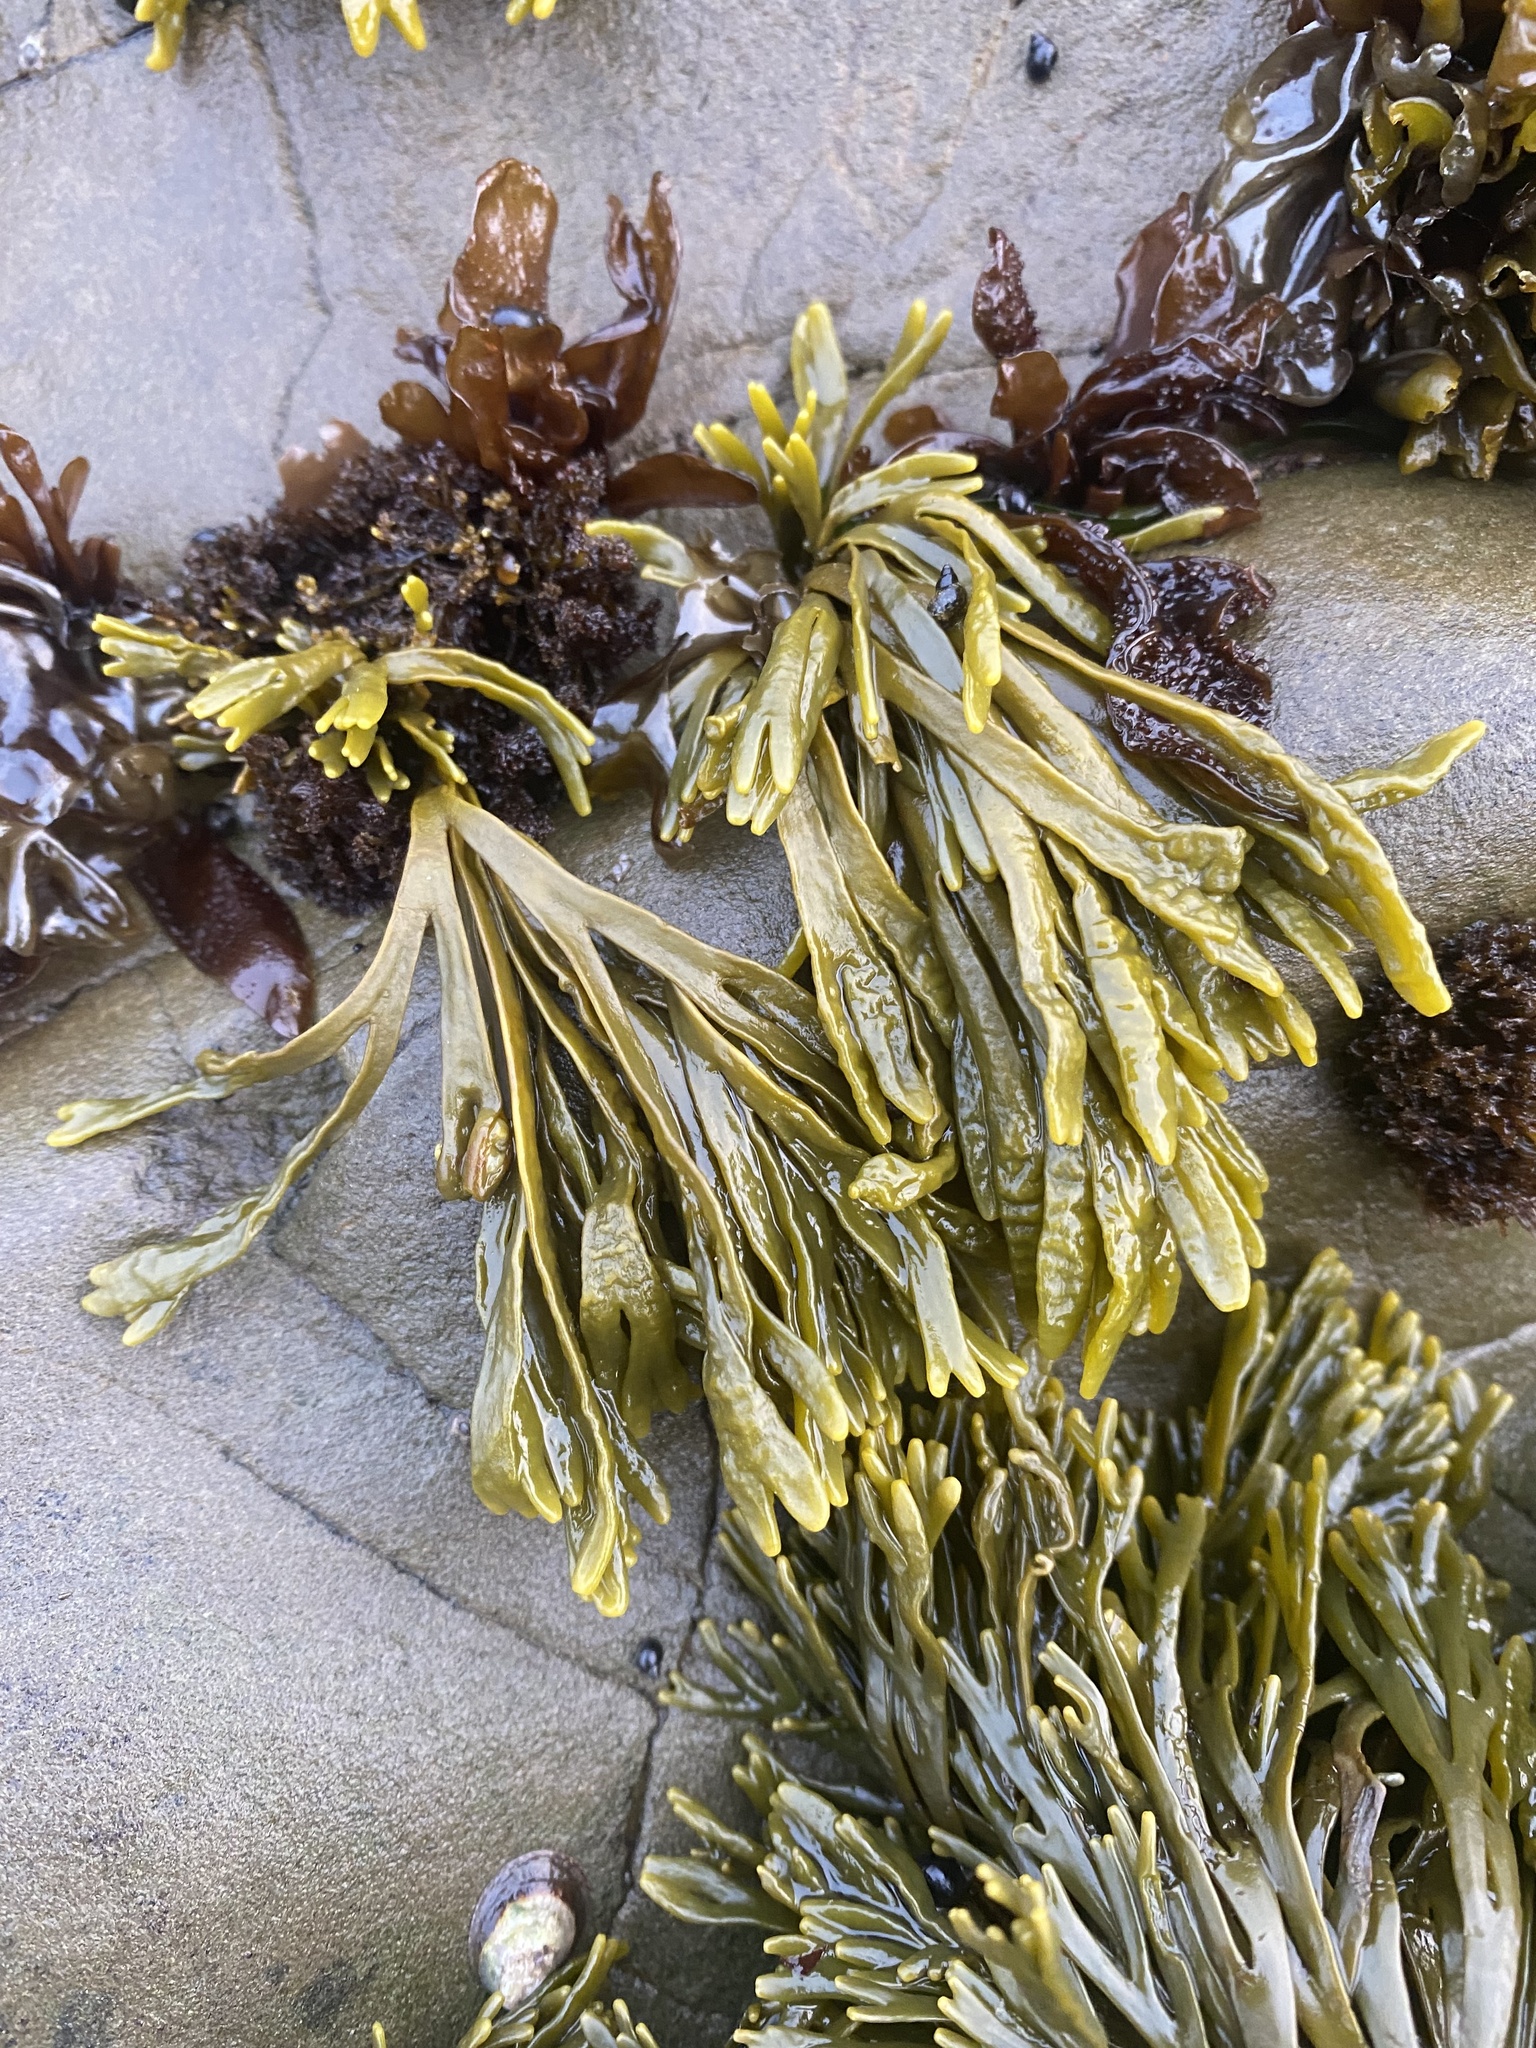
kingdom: Chromista
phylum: Ochrophyta
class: Phaeophyceae
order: Fucales
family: Fucaceae
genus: Pelvetiopsis
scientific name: Pelvetiopsis limitata
